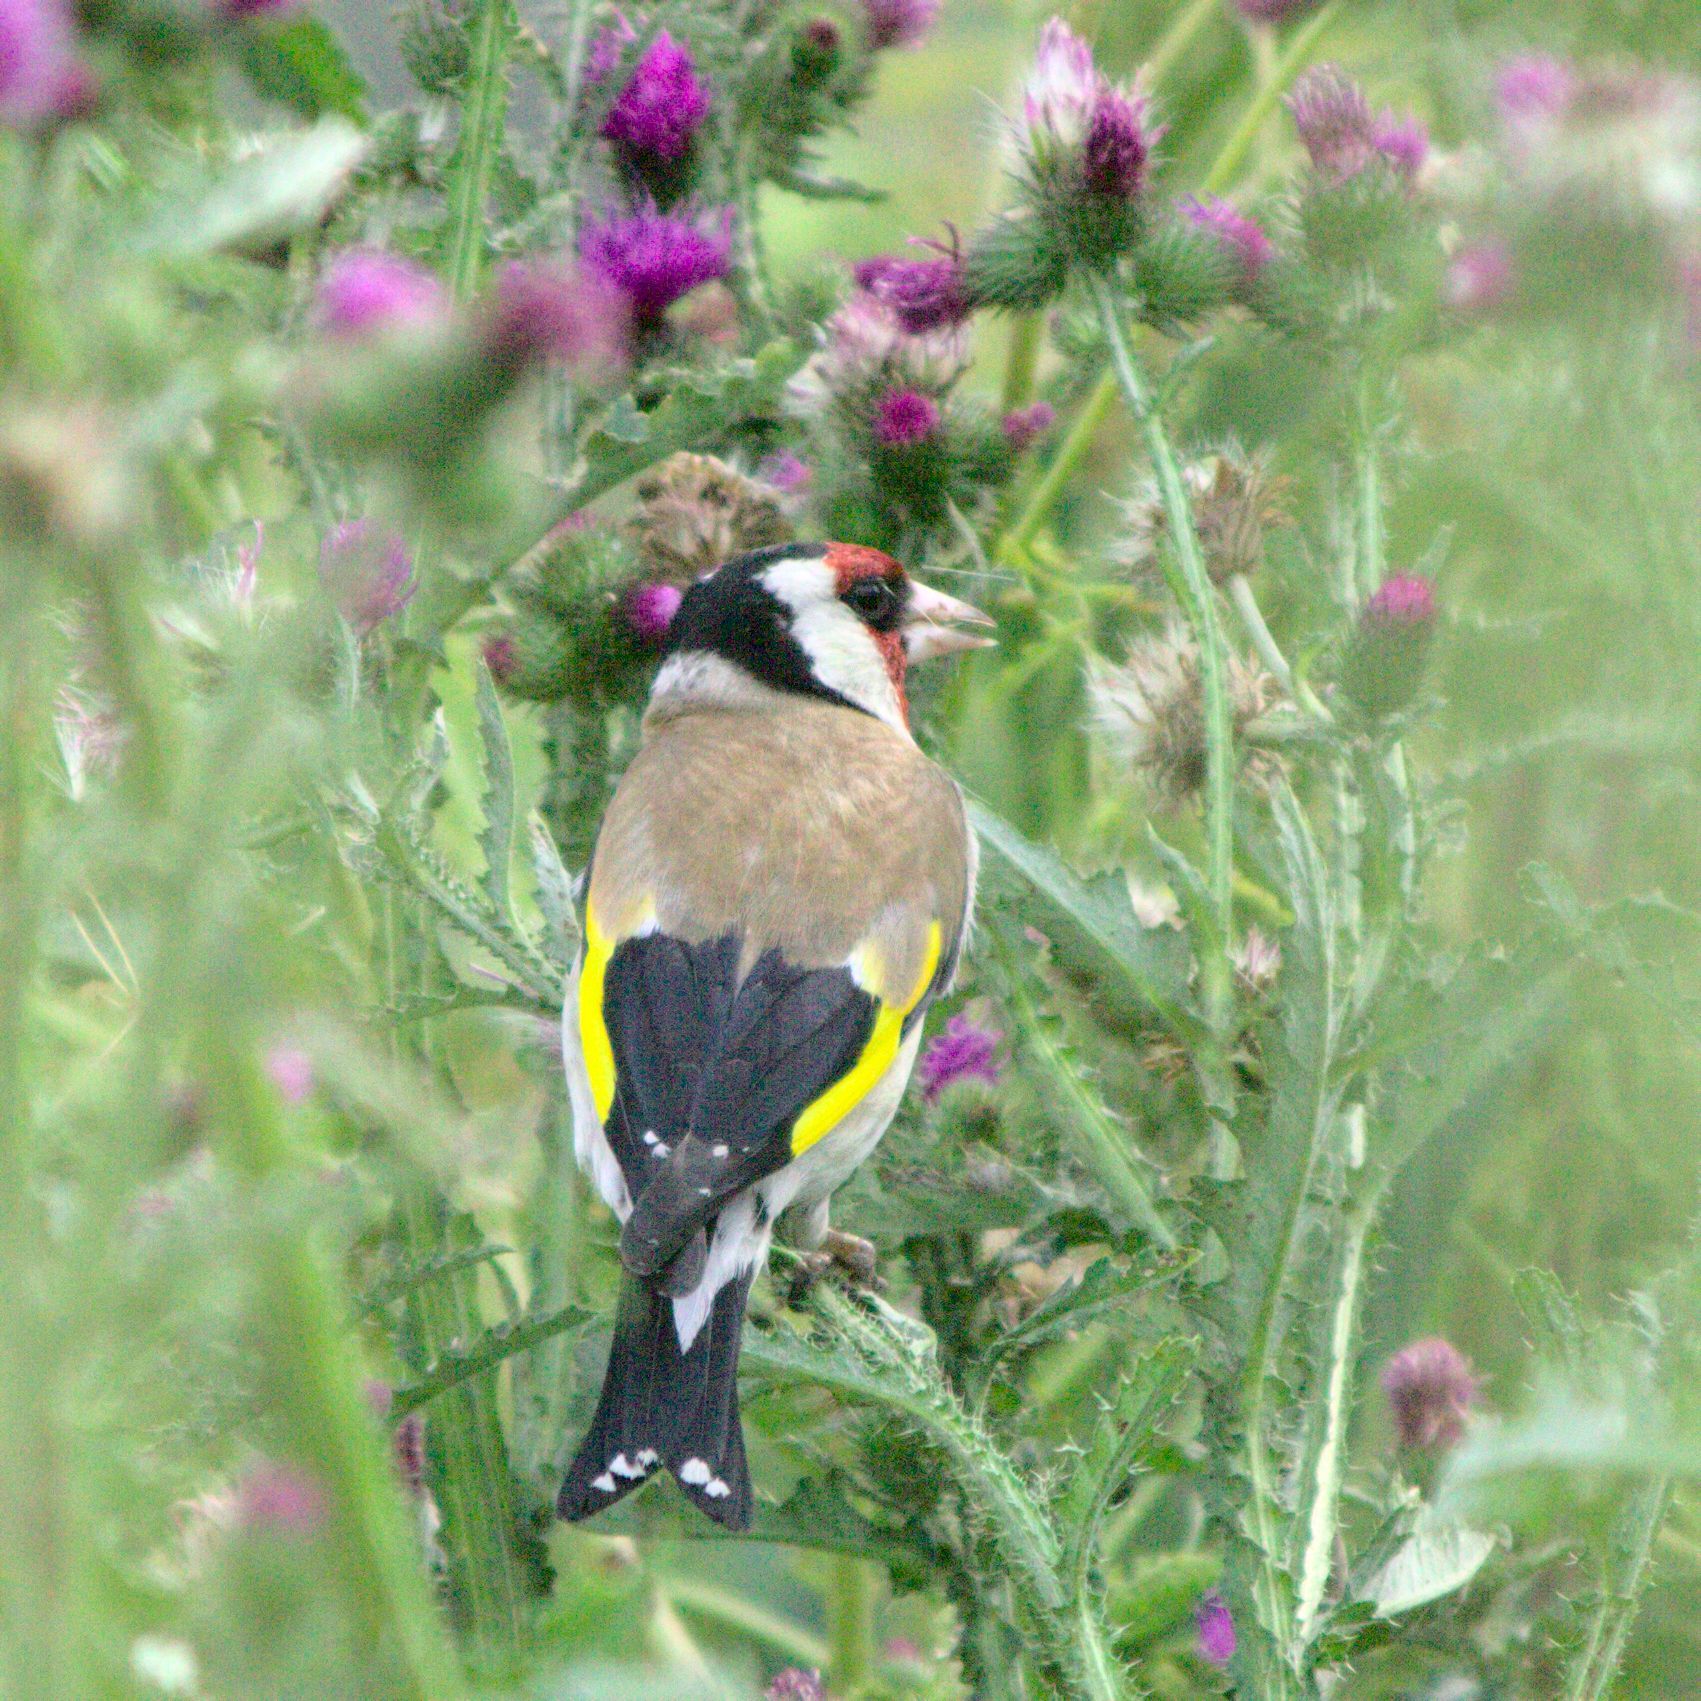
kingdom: Animalia
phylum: Chordata
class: Aves
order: Passeriformes
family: Fringillidae
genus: Carduelis
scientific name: Carduelis carduelis
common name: European goldfinch
